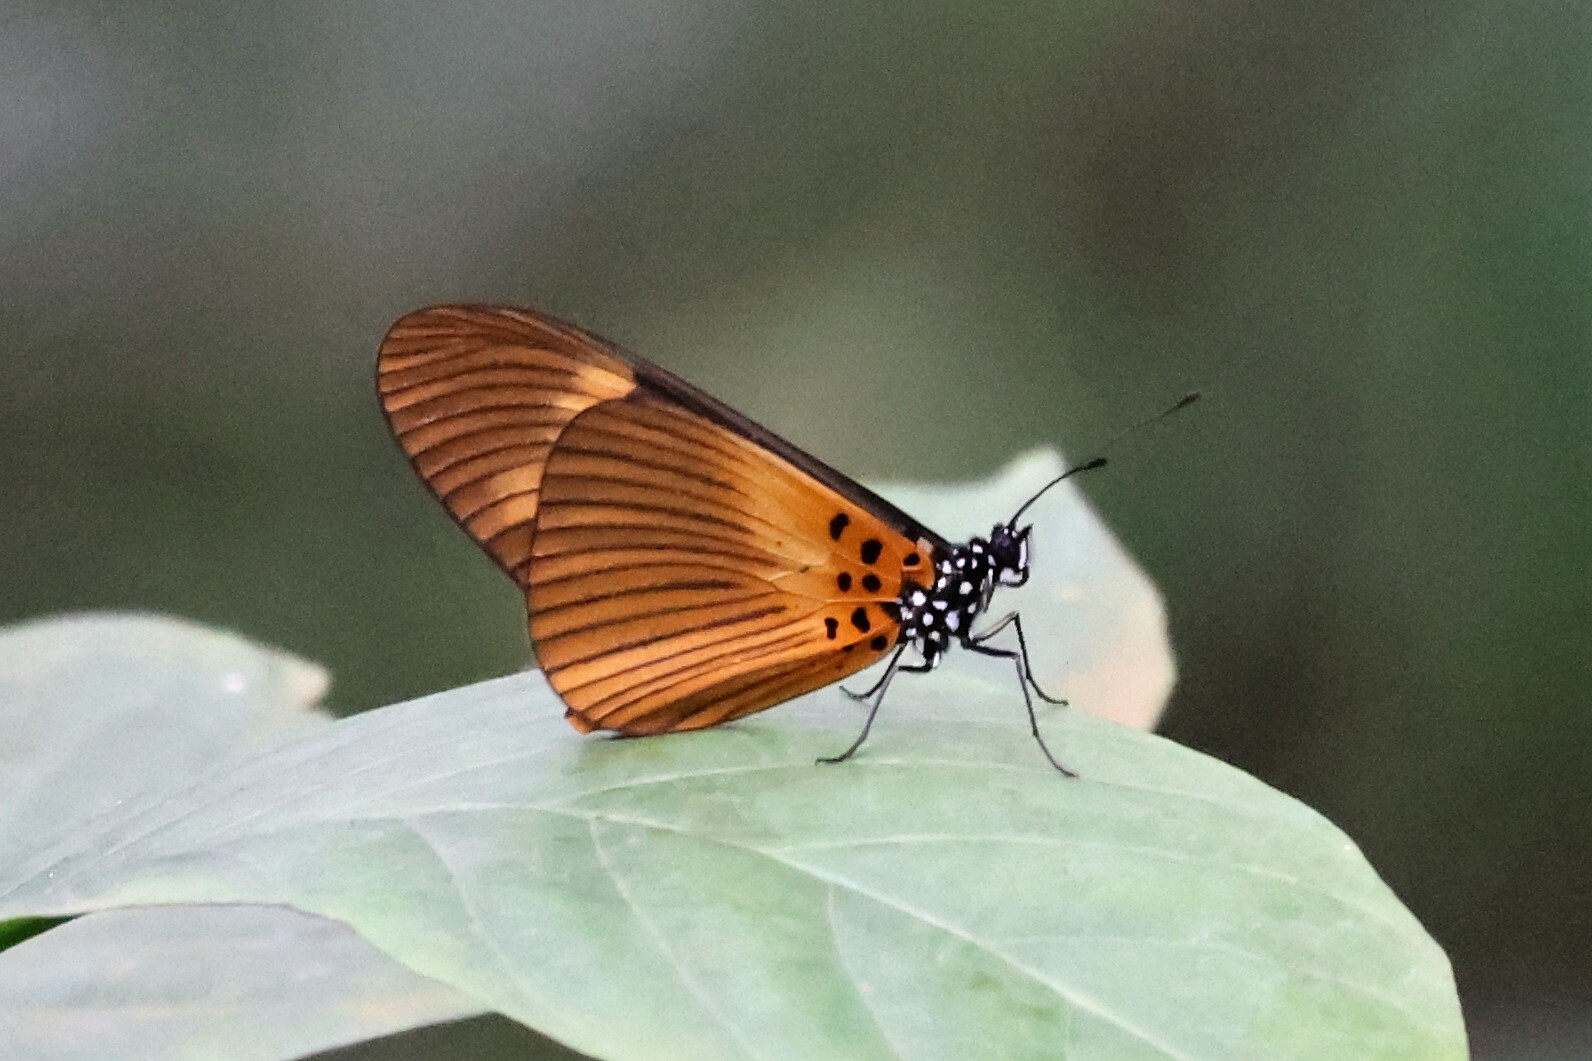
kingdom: Animalia
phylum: Arthropoda
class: Insecta
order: Lepidoptera
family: Nymphalidae
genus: Acraea
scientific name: Acraea
